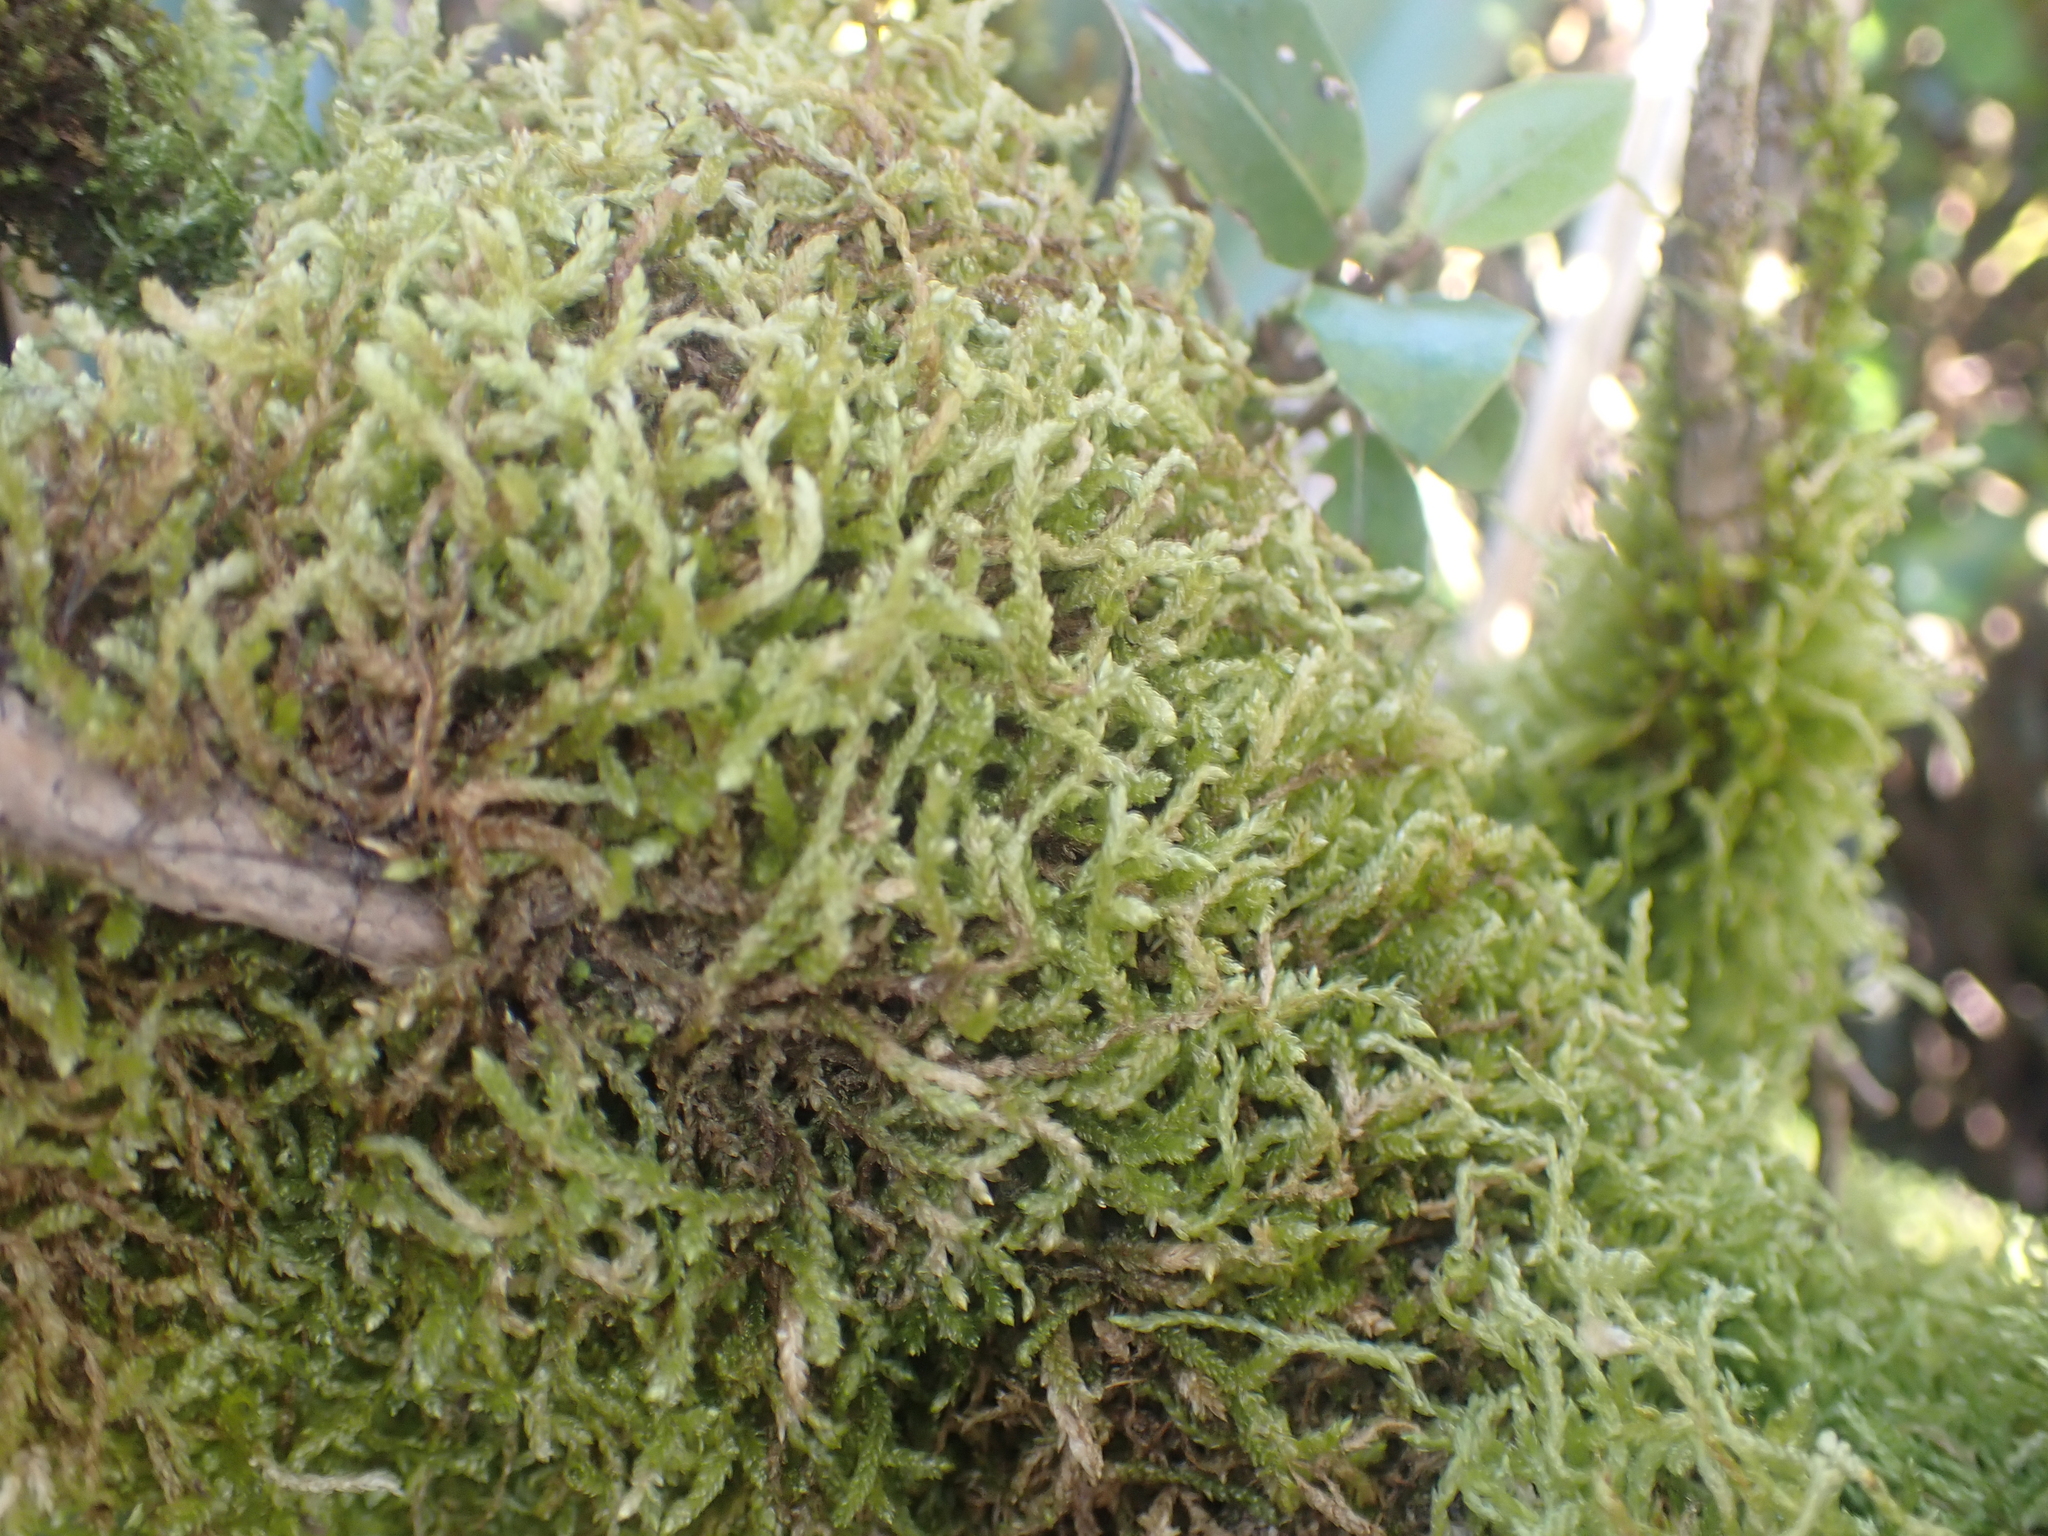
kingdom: Plantae
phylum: Bryophyta
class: Bryopsida
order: Hypnales
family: Lembophyllaceae
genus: Weymouthia
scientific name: Weymouthia mollis
